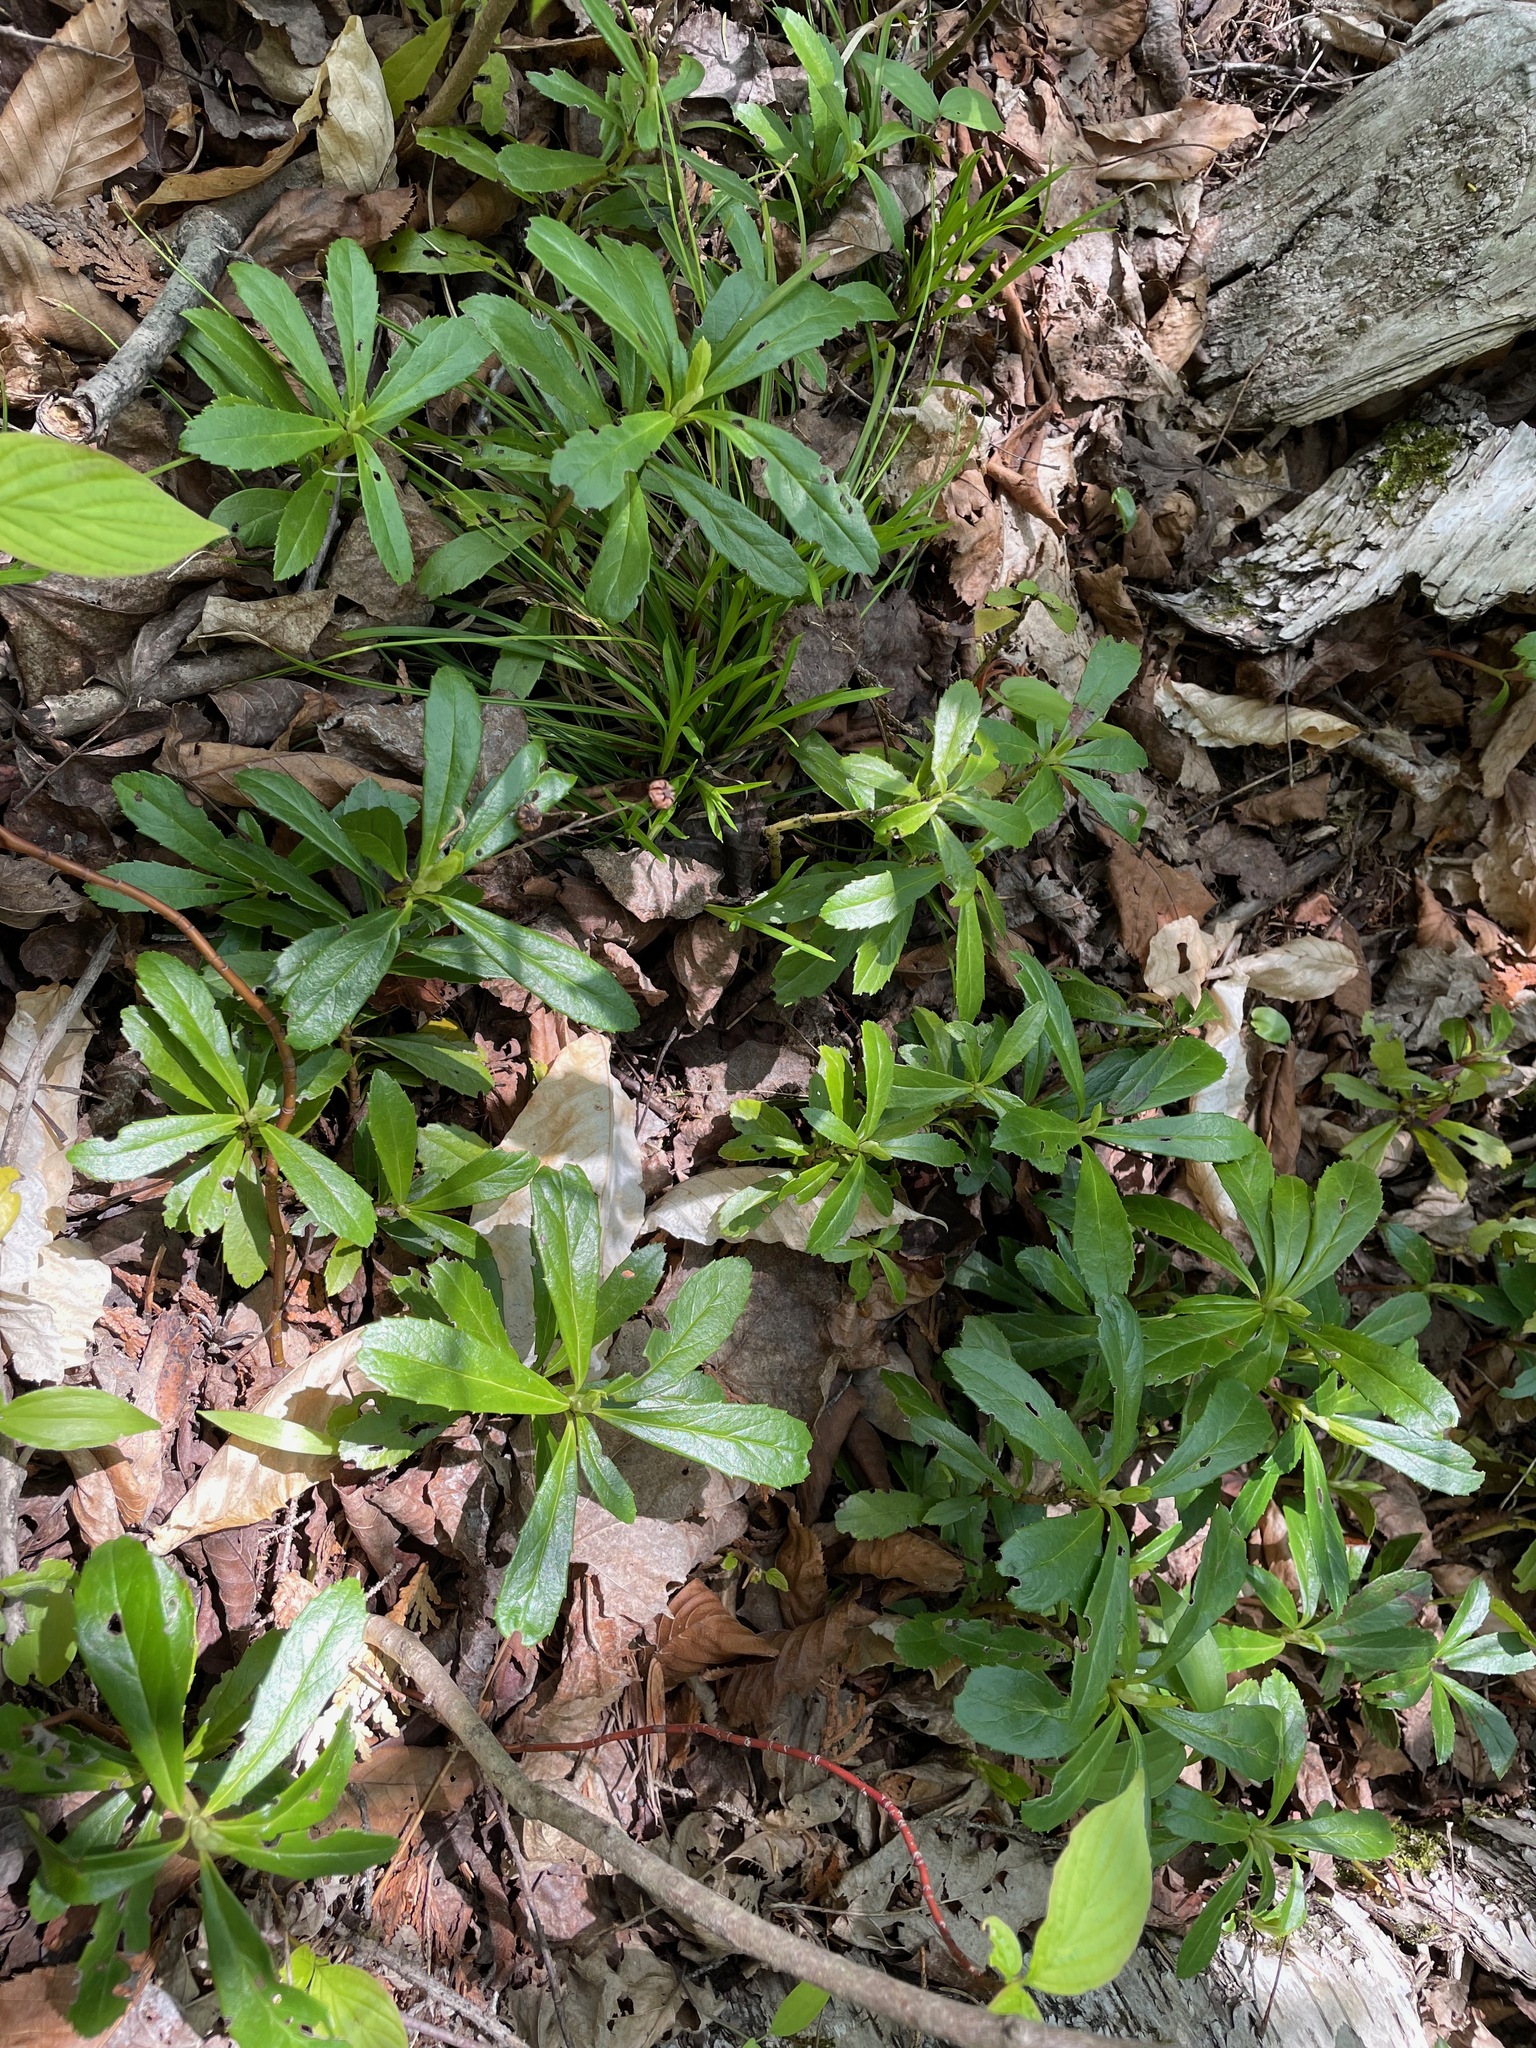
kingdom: Plantae
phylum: Tracheophyta
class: Magnoliopsida
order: Ericales
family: Ericaceae
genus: Chimaphila
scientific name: Chimaphila umbellata
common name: Pipsissewa
